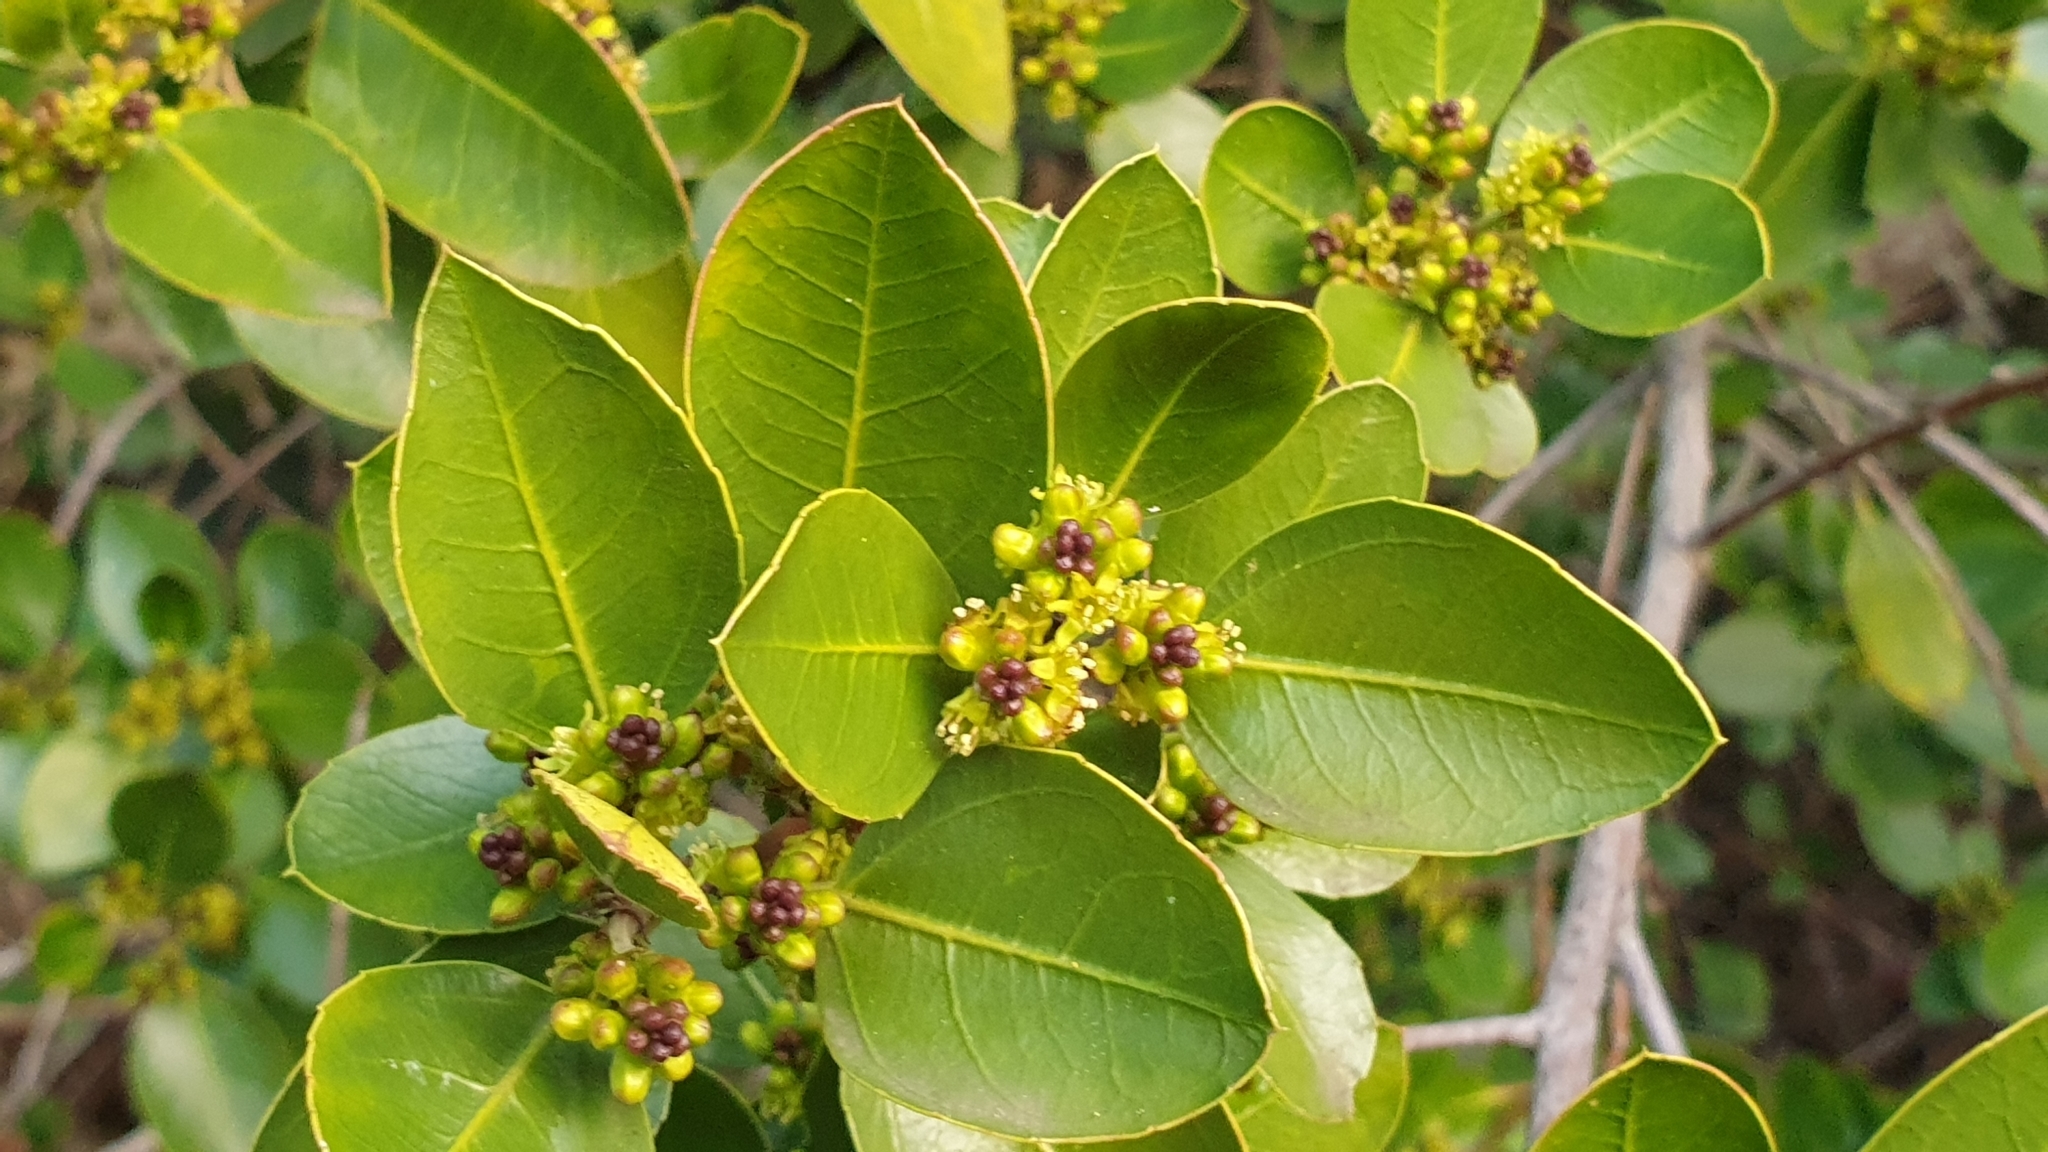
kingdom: Plantae
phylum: Tracheophyta
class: Magnoliopsida
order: Rosales
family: Rhamnaceae
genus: Rhamnus
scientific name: Rhamnus alaternus
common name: Mediterranean buckthorn
